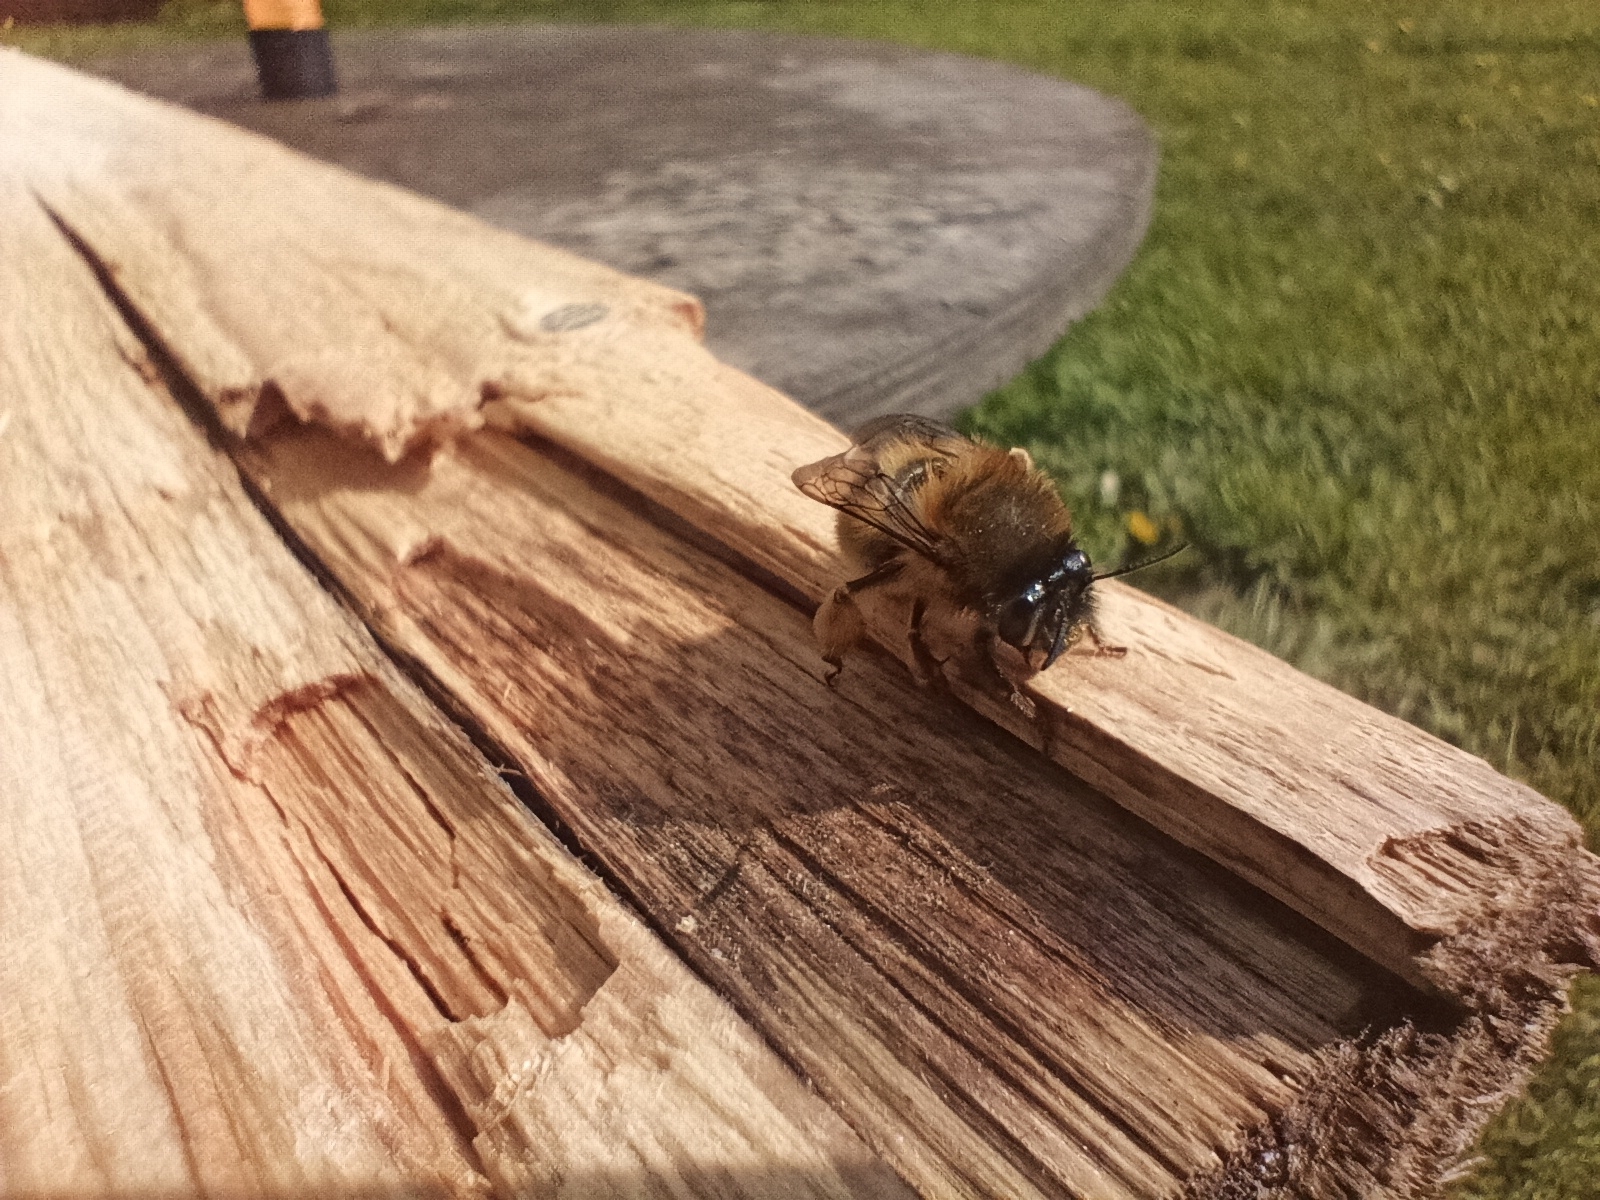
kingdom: Animalia
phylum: Arthropoda
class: Insecta
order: Hymenoptera
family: Apidae
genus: Anthophora
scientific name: Anthophora plumipes
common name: Hairy-footed flower bee
